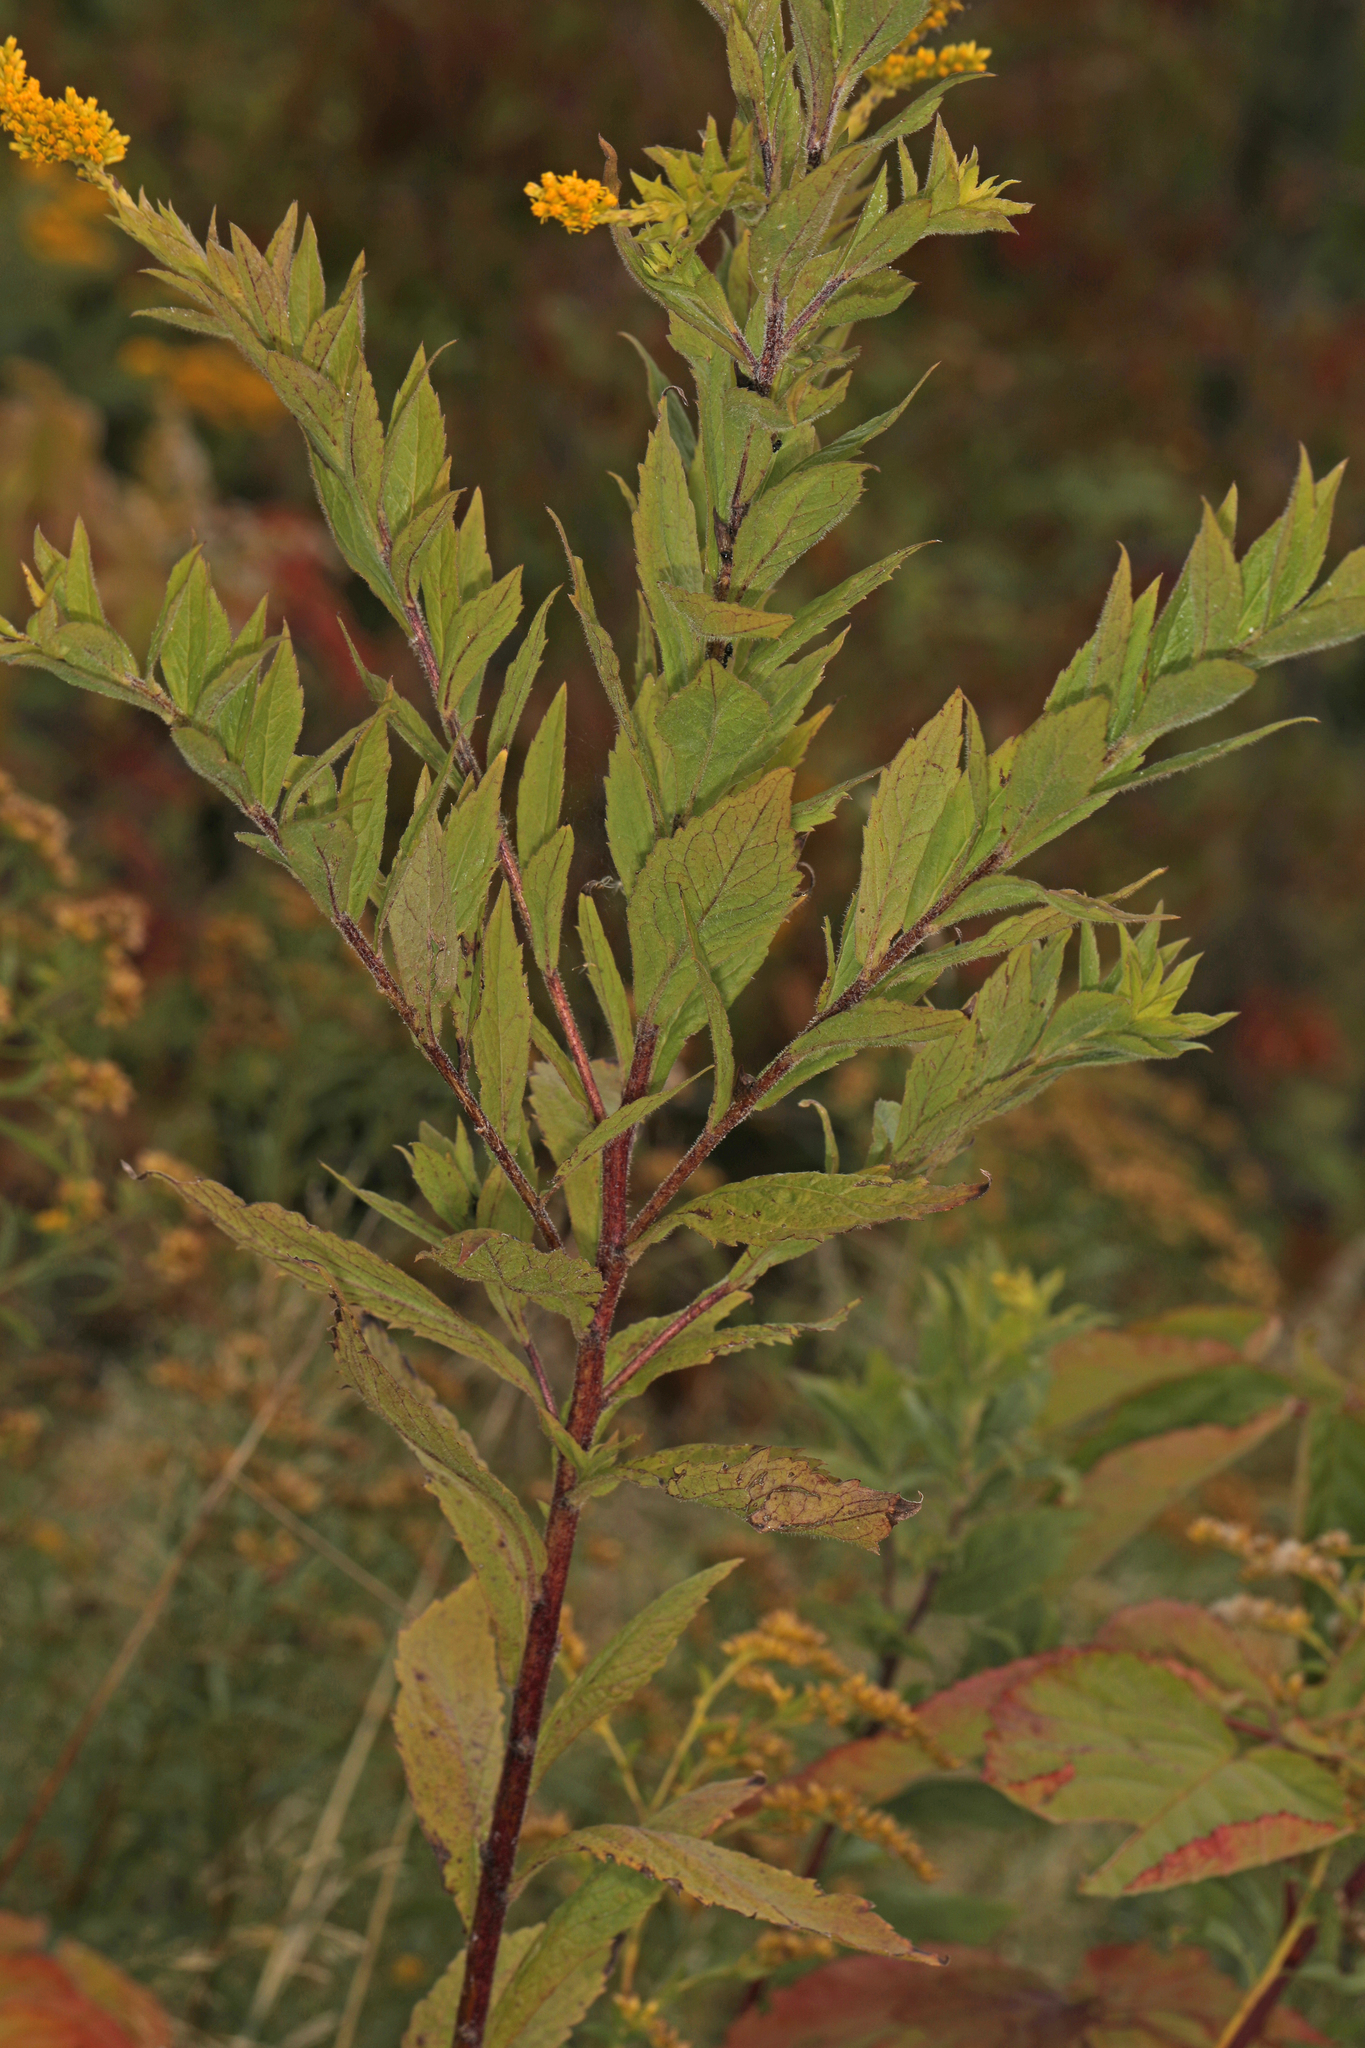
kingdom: Plantae
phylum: Tracheophyta
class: Magnoliopsida
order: Asterales
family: Asteraceae
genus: Solidago
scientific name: Solidago rugosa
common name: Rough-stemmed goldenrod
